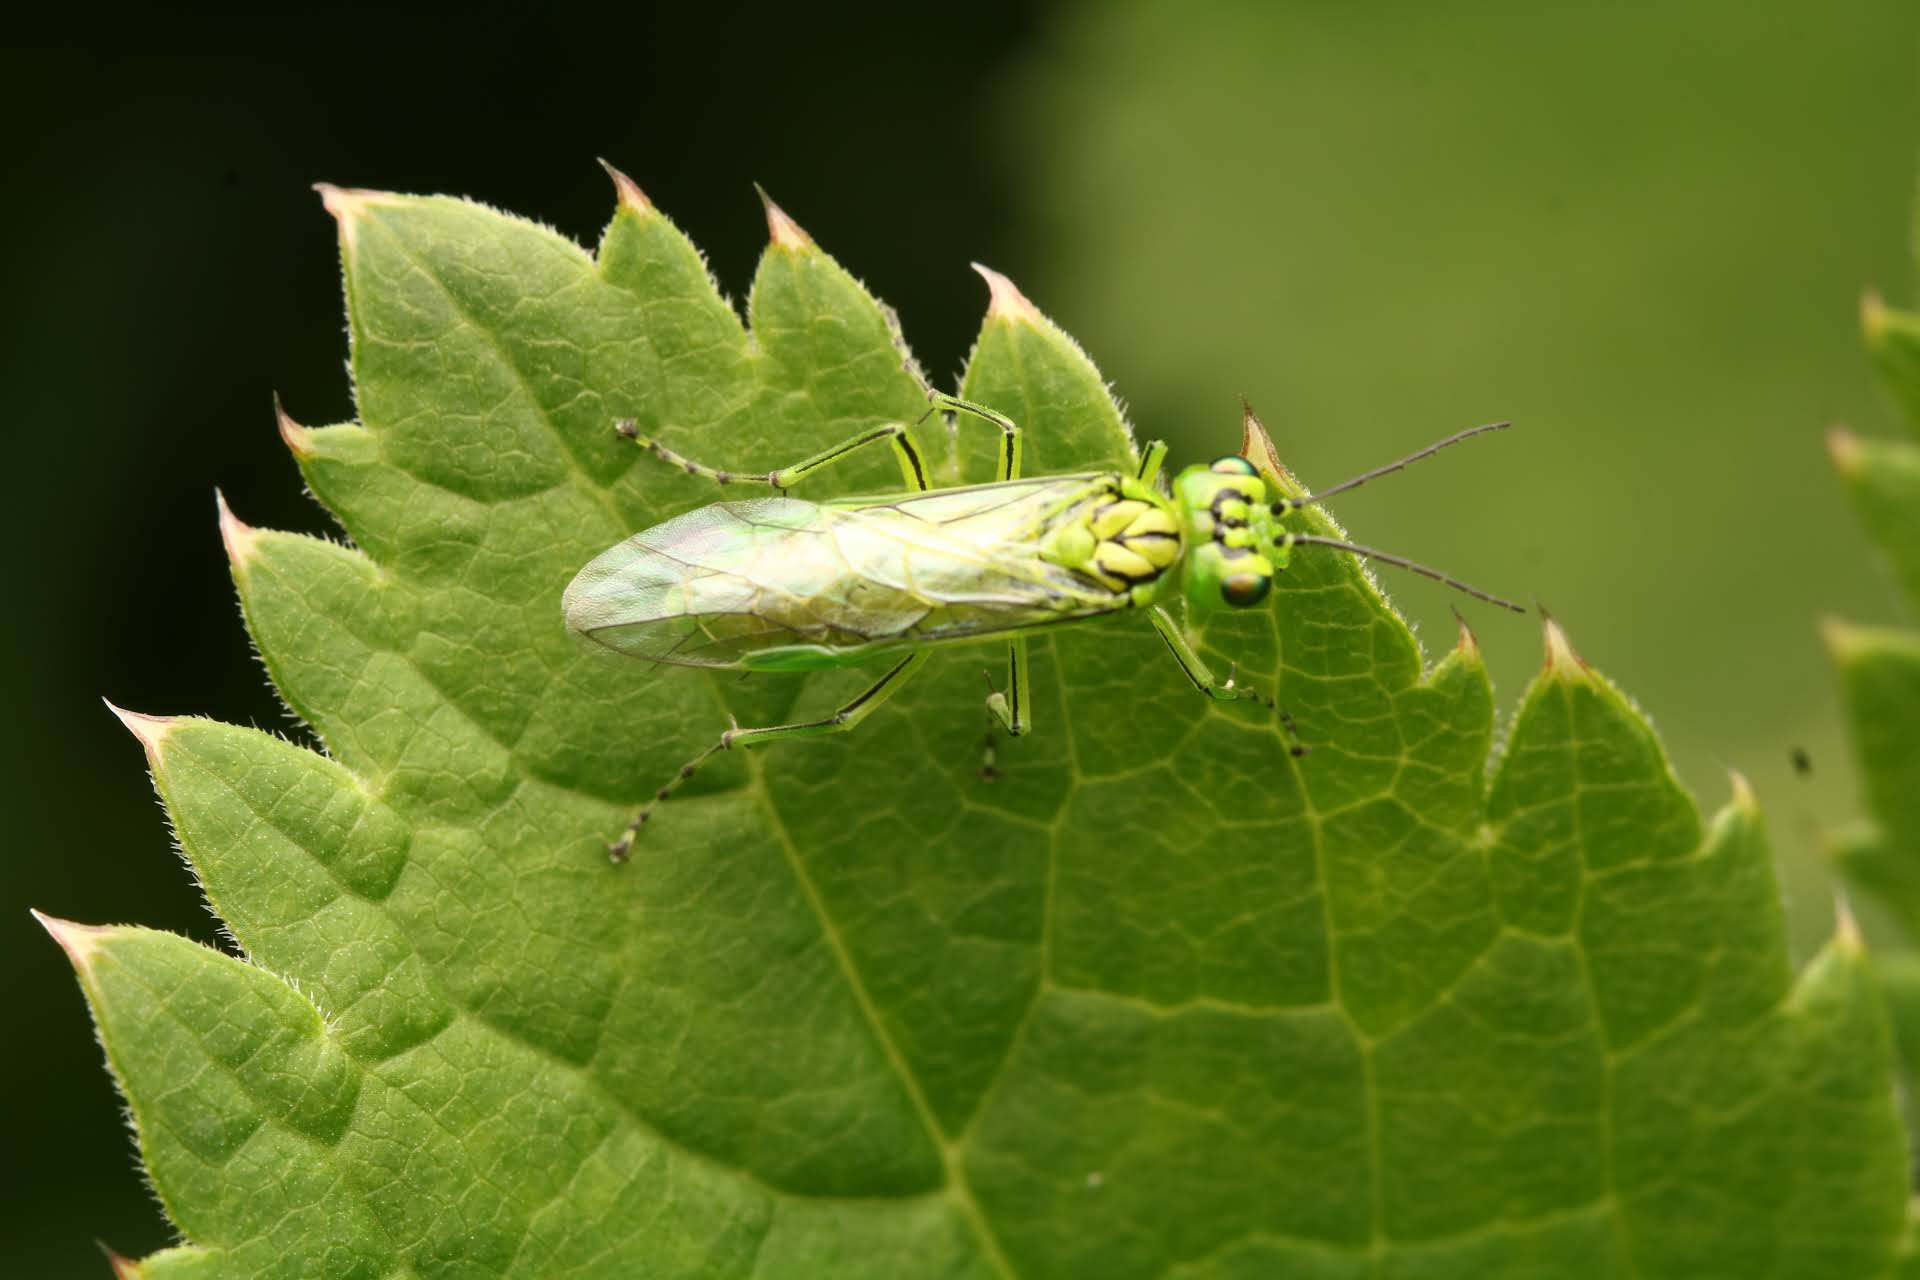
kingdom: Animalia
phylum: Arthropoda
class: Insecta
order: Hymenoptera
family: Tenthredinidae
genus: Rhogogaster
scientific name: Rhogogaster punctulata
